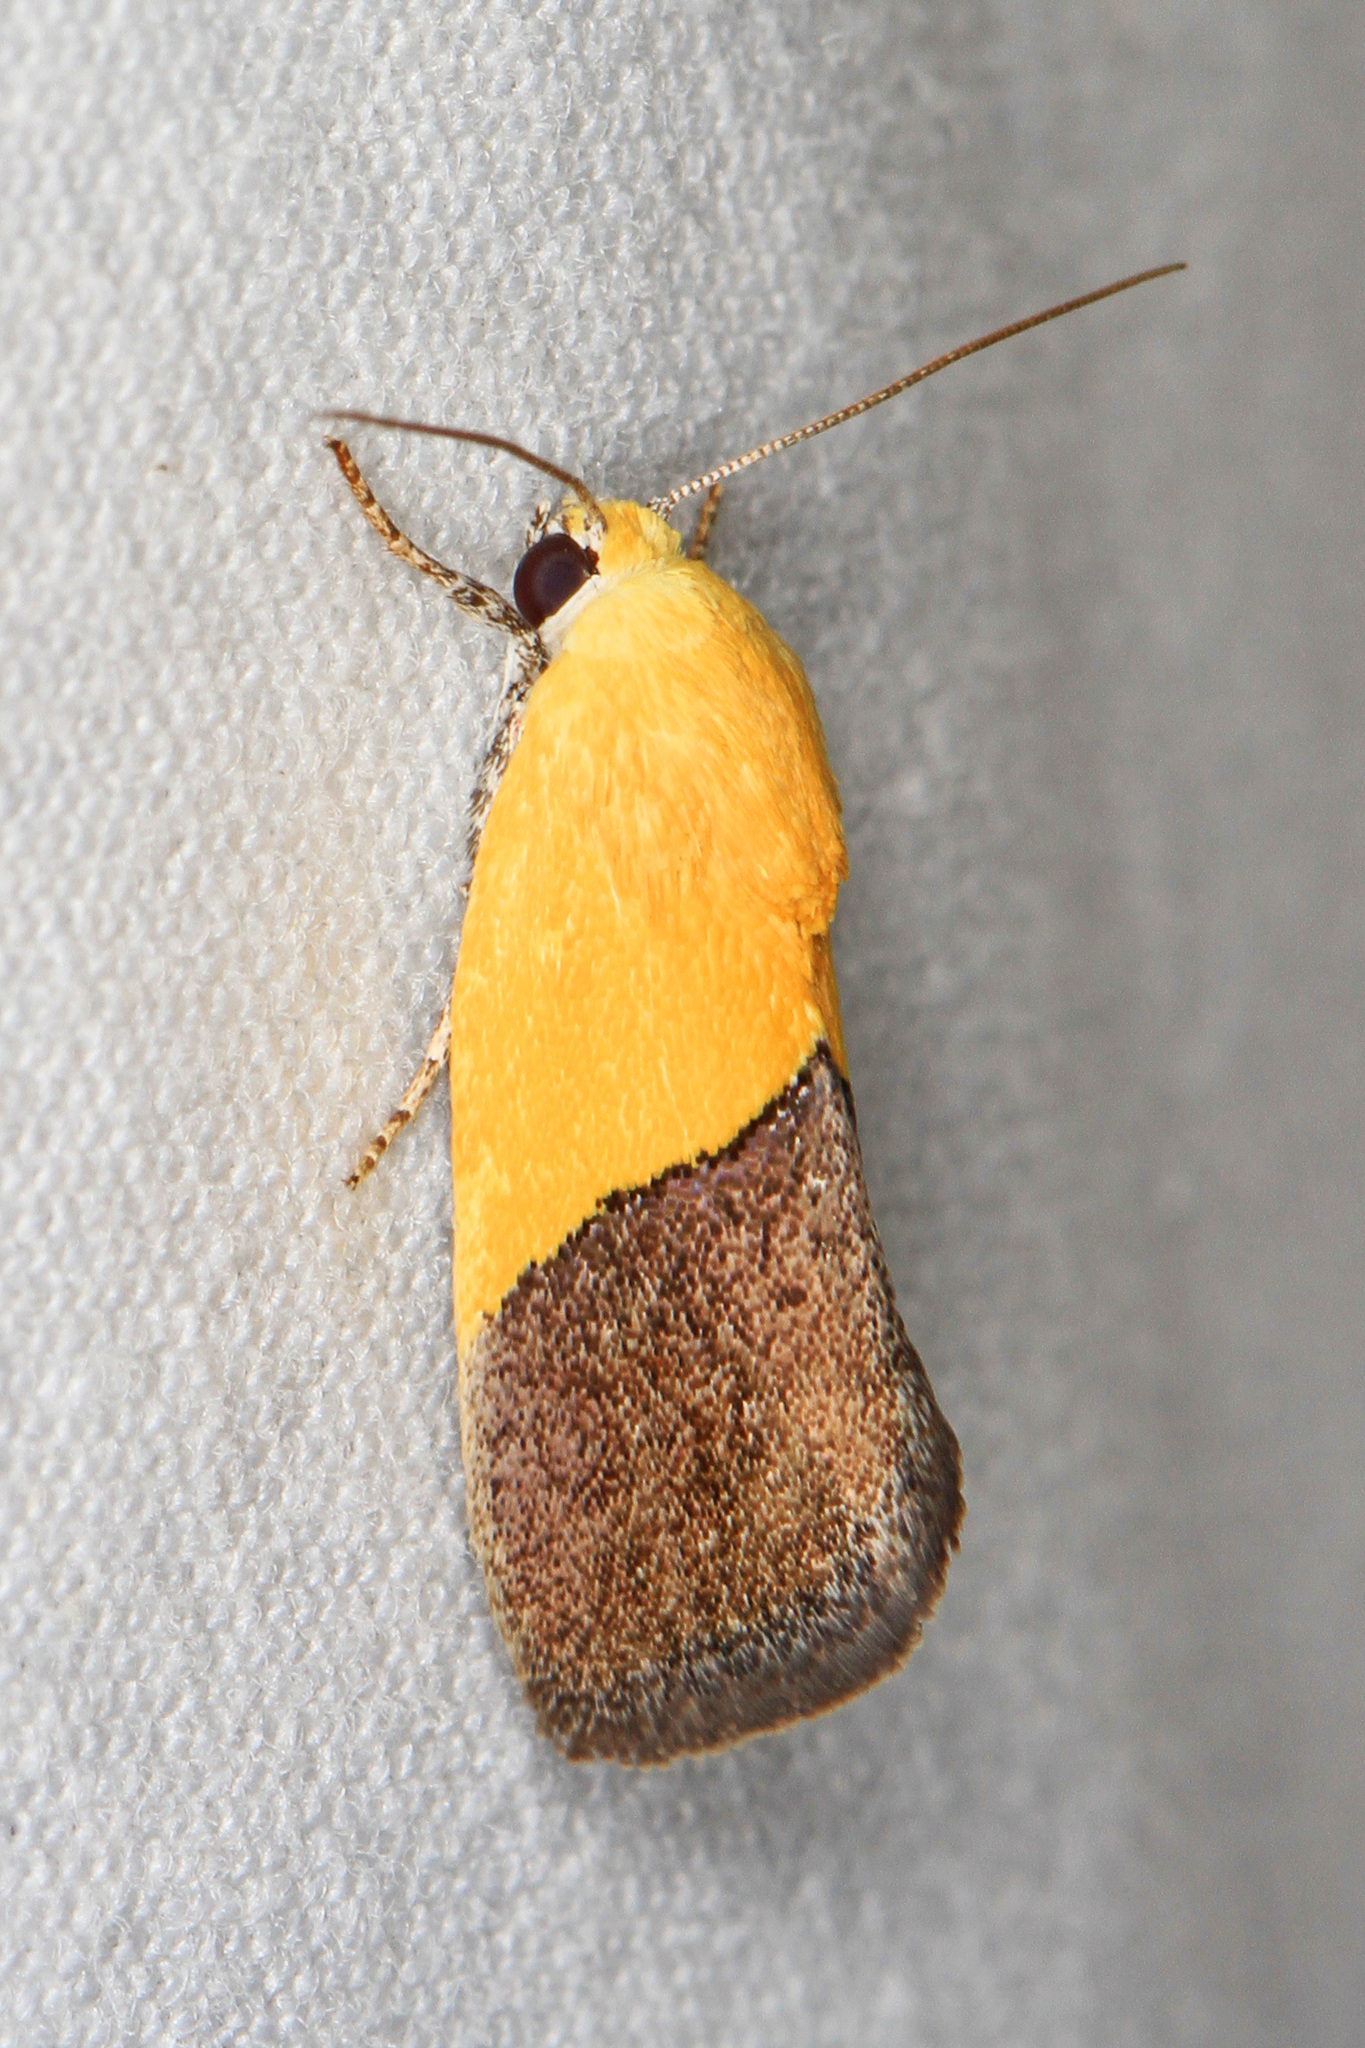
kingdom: Animalia
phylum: Arthropoda
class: Insecta
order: Lepidoptera
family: Noctuidae
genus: Acontia
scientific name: Acontia semiflava
